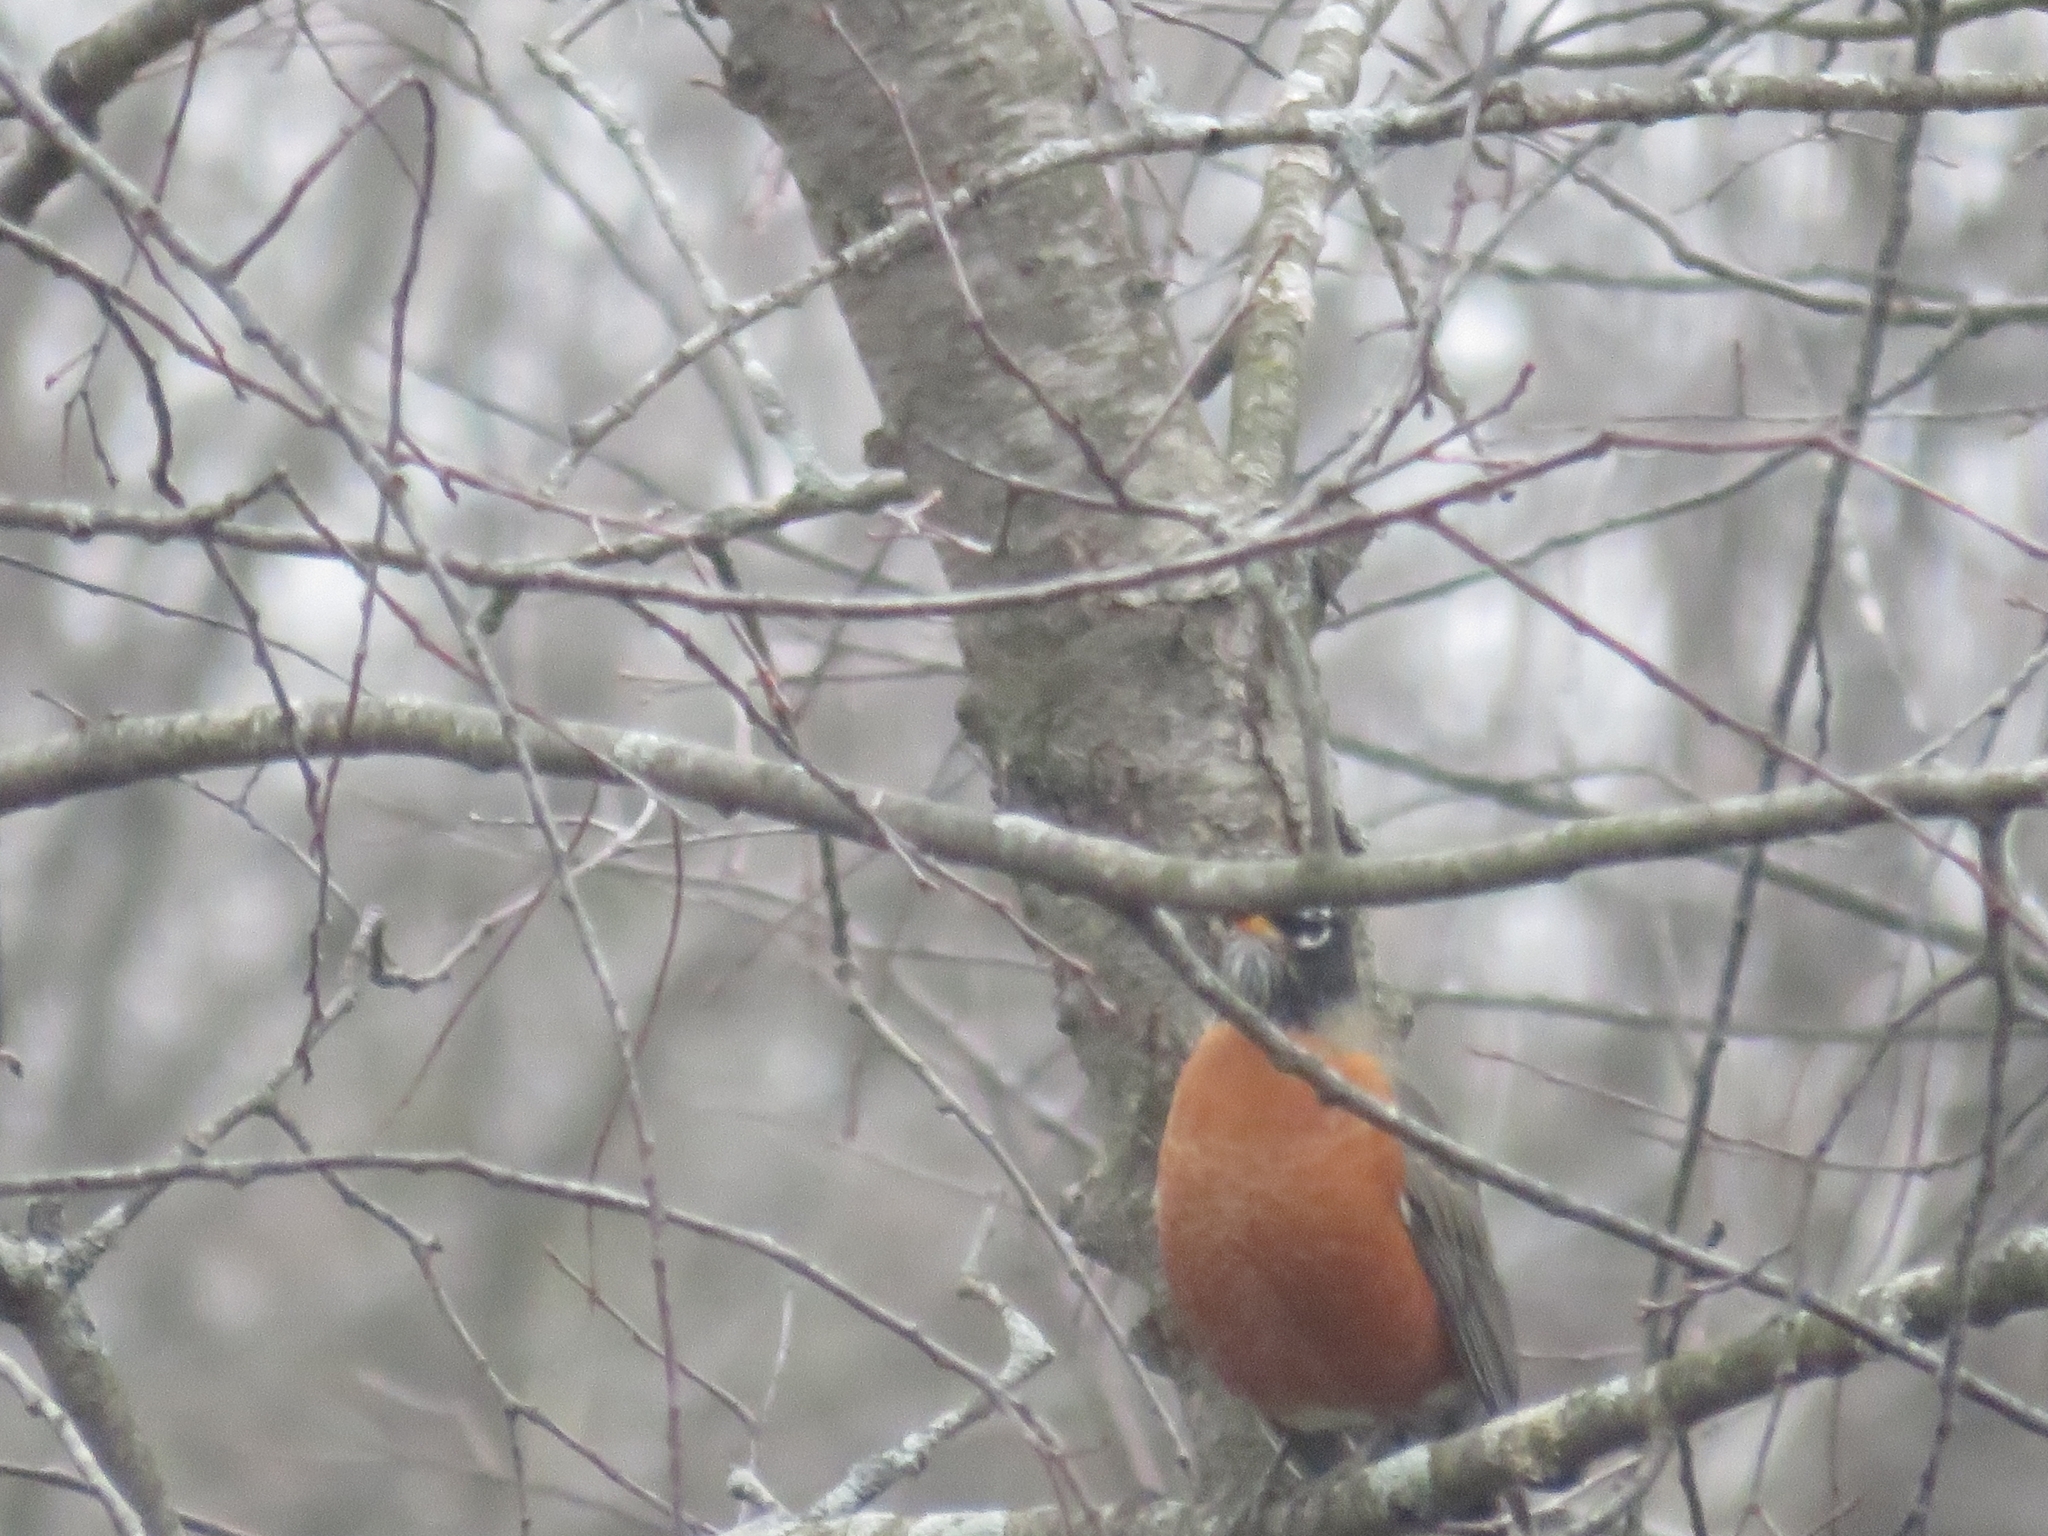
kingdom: Animalia
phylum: Chordata
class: Aves
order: Passeriformes
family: Turdidae
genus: Turdus
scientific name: Turdus migratorius
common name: American robin
